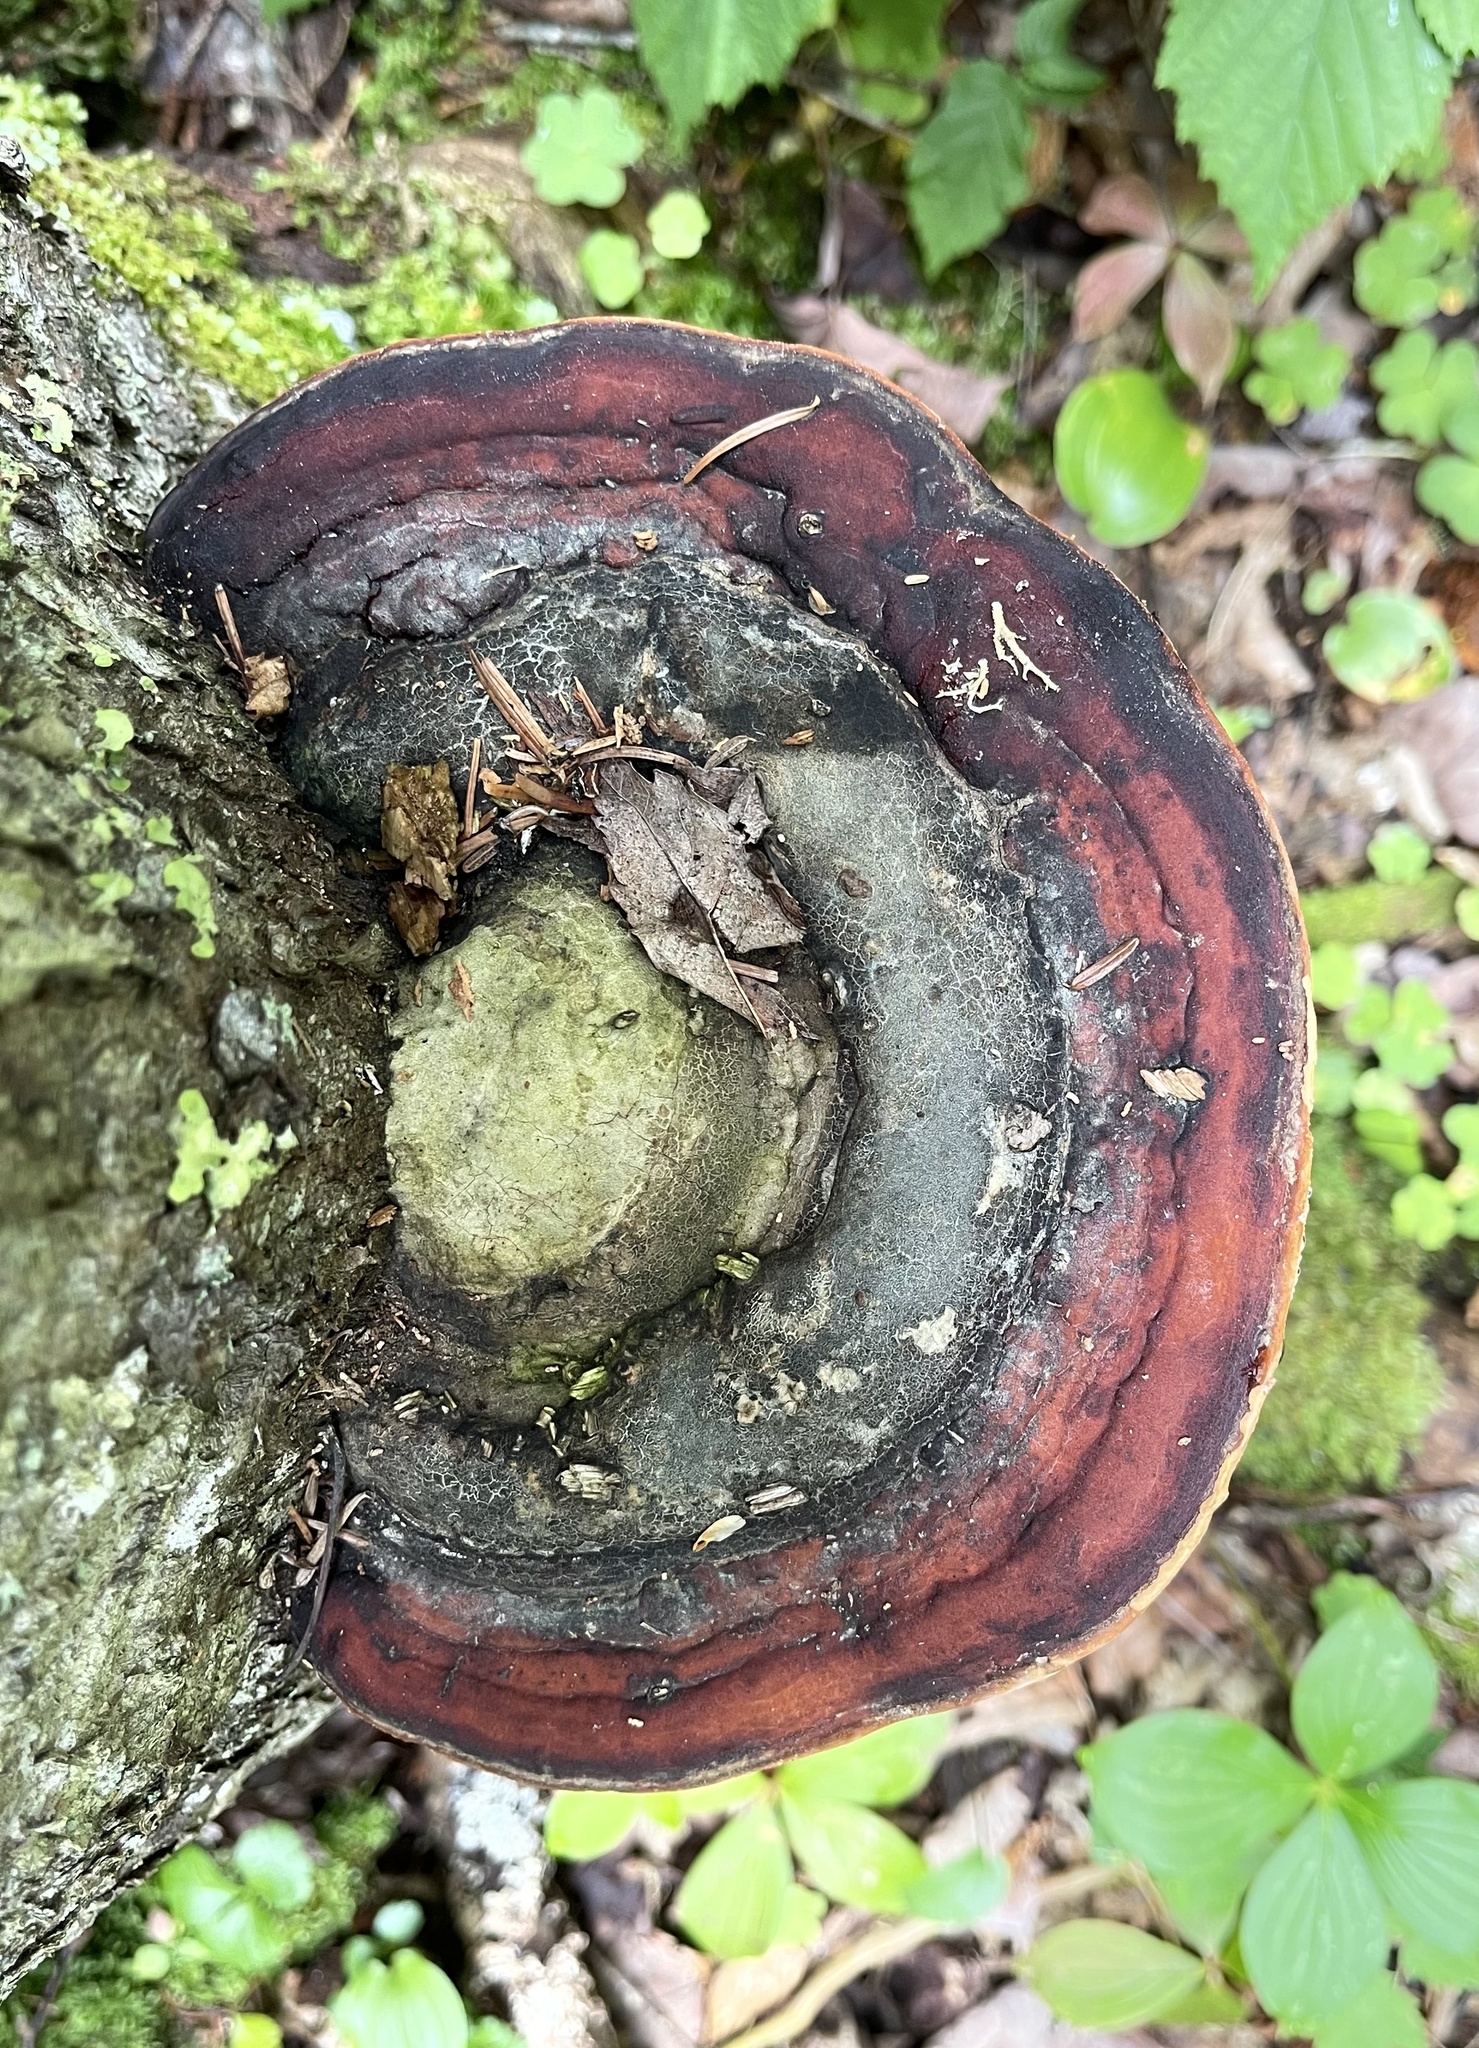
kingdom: Fungi
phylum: Basidiomycota
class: Agaricomycetes
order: Polyporales
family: Fomitopsidaceae
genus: Fomitopsis
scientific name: Fomitopsis mounceae
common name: Northern red belt
